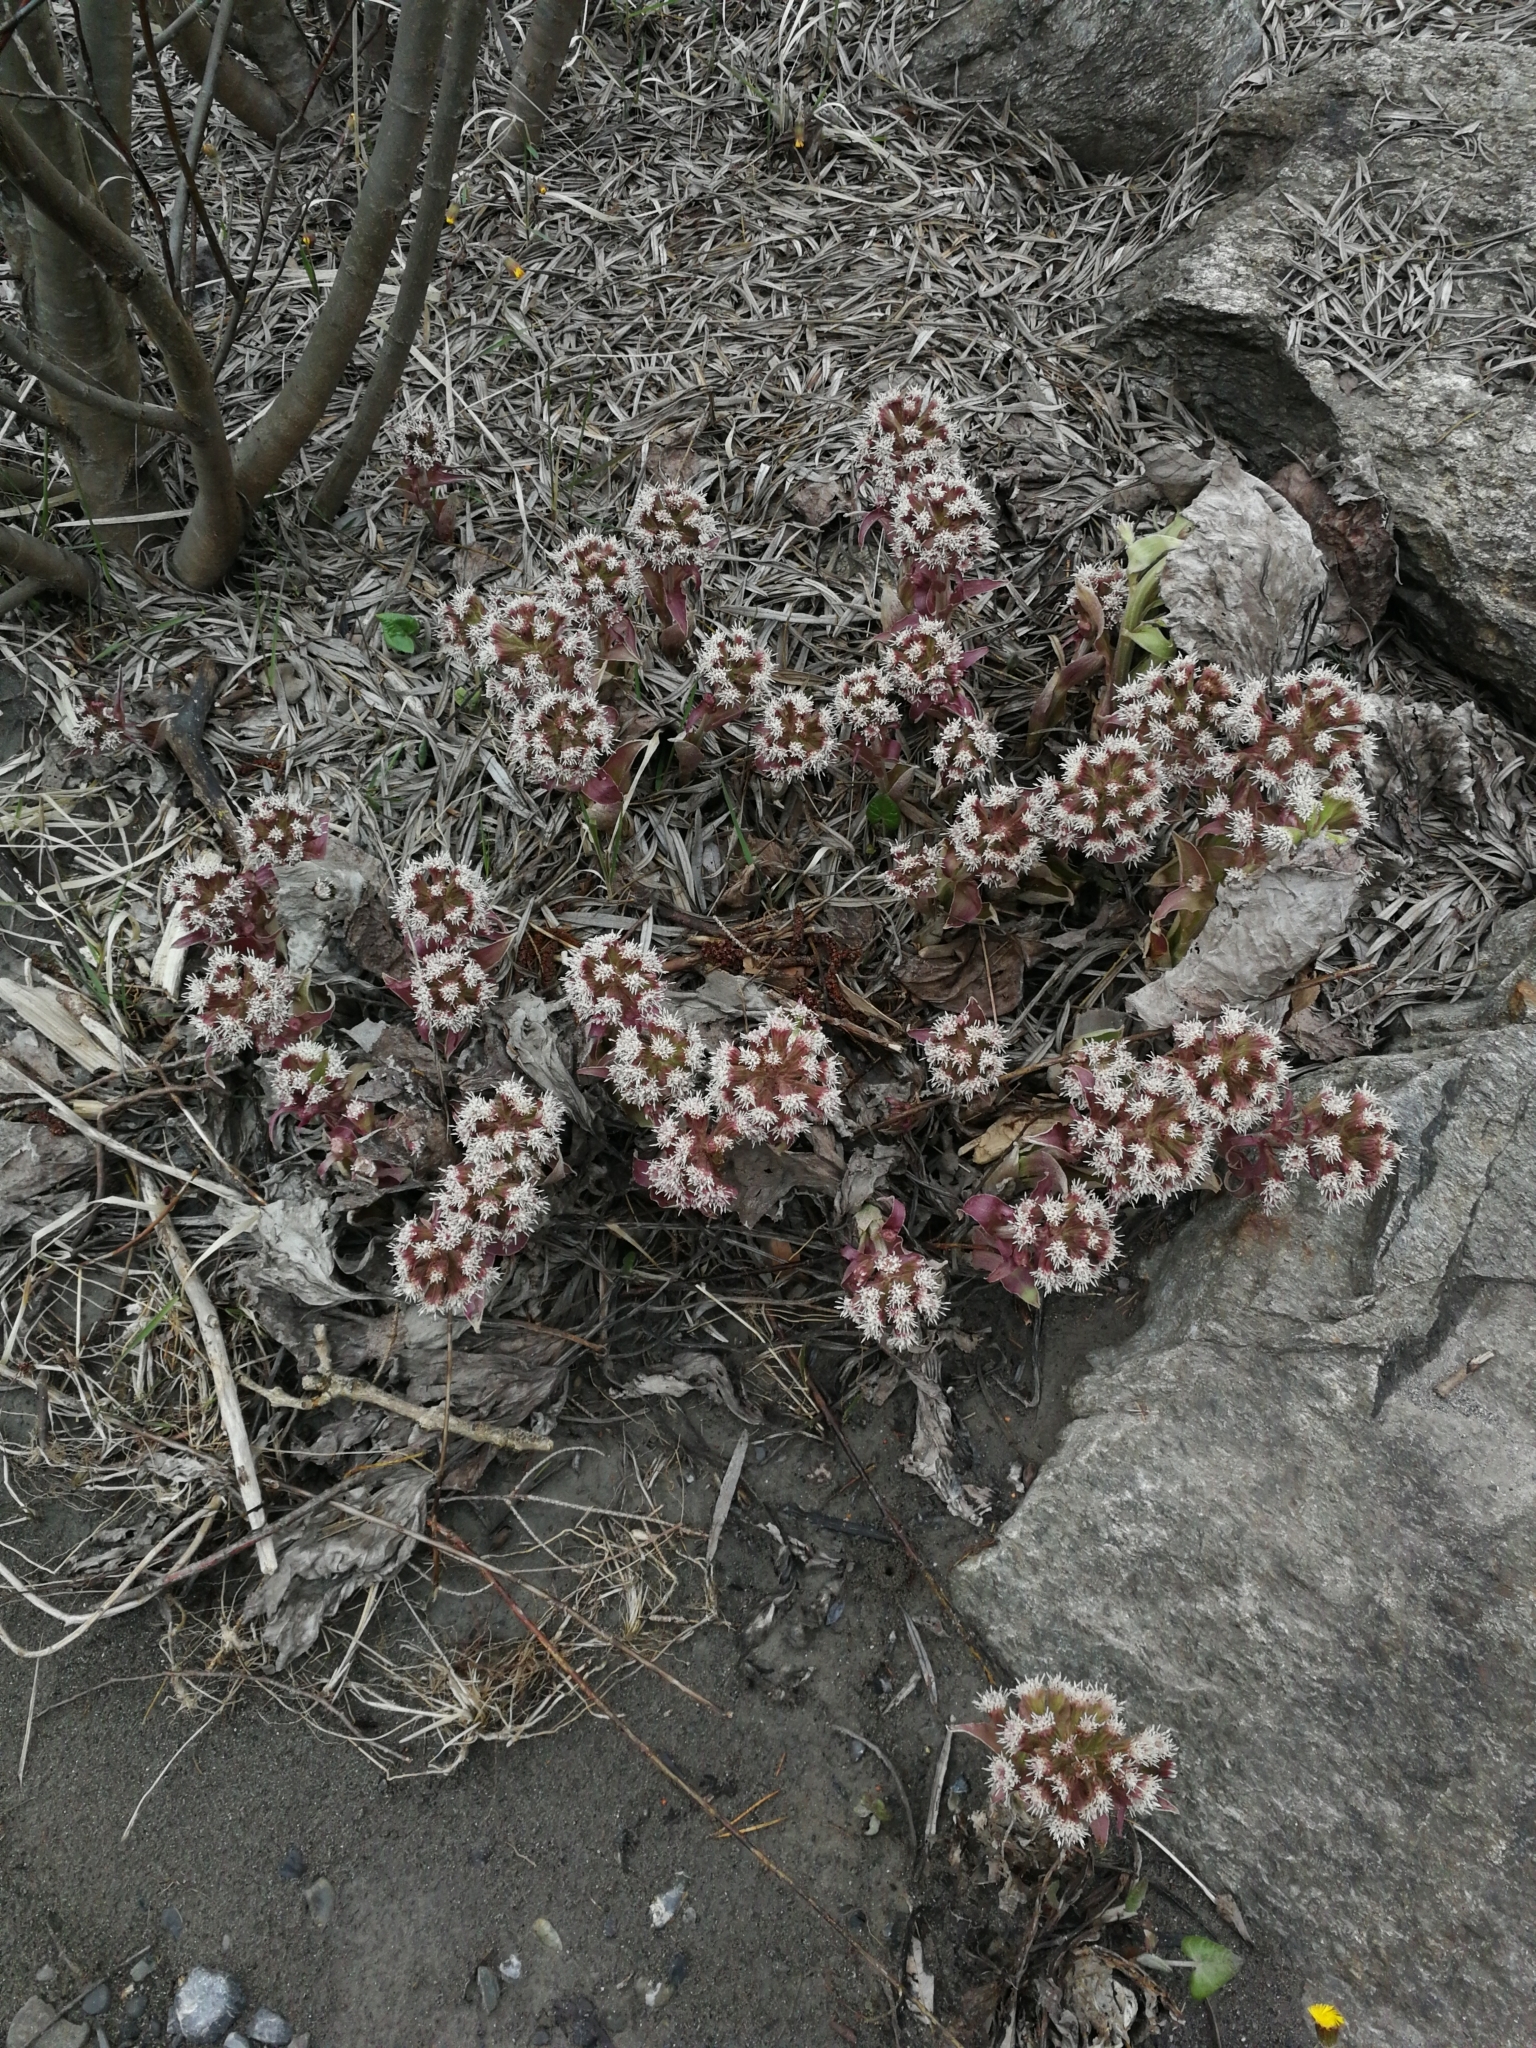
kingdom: Plantae
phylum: Tracheophyta
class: Magnoliopsida
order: Asterales
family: Asteraceae
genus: Petasites
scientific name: Petasites hybridus
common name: Butterbur
